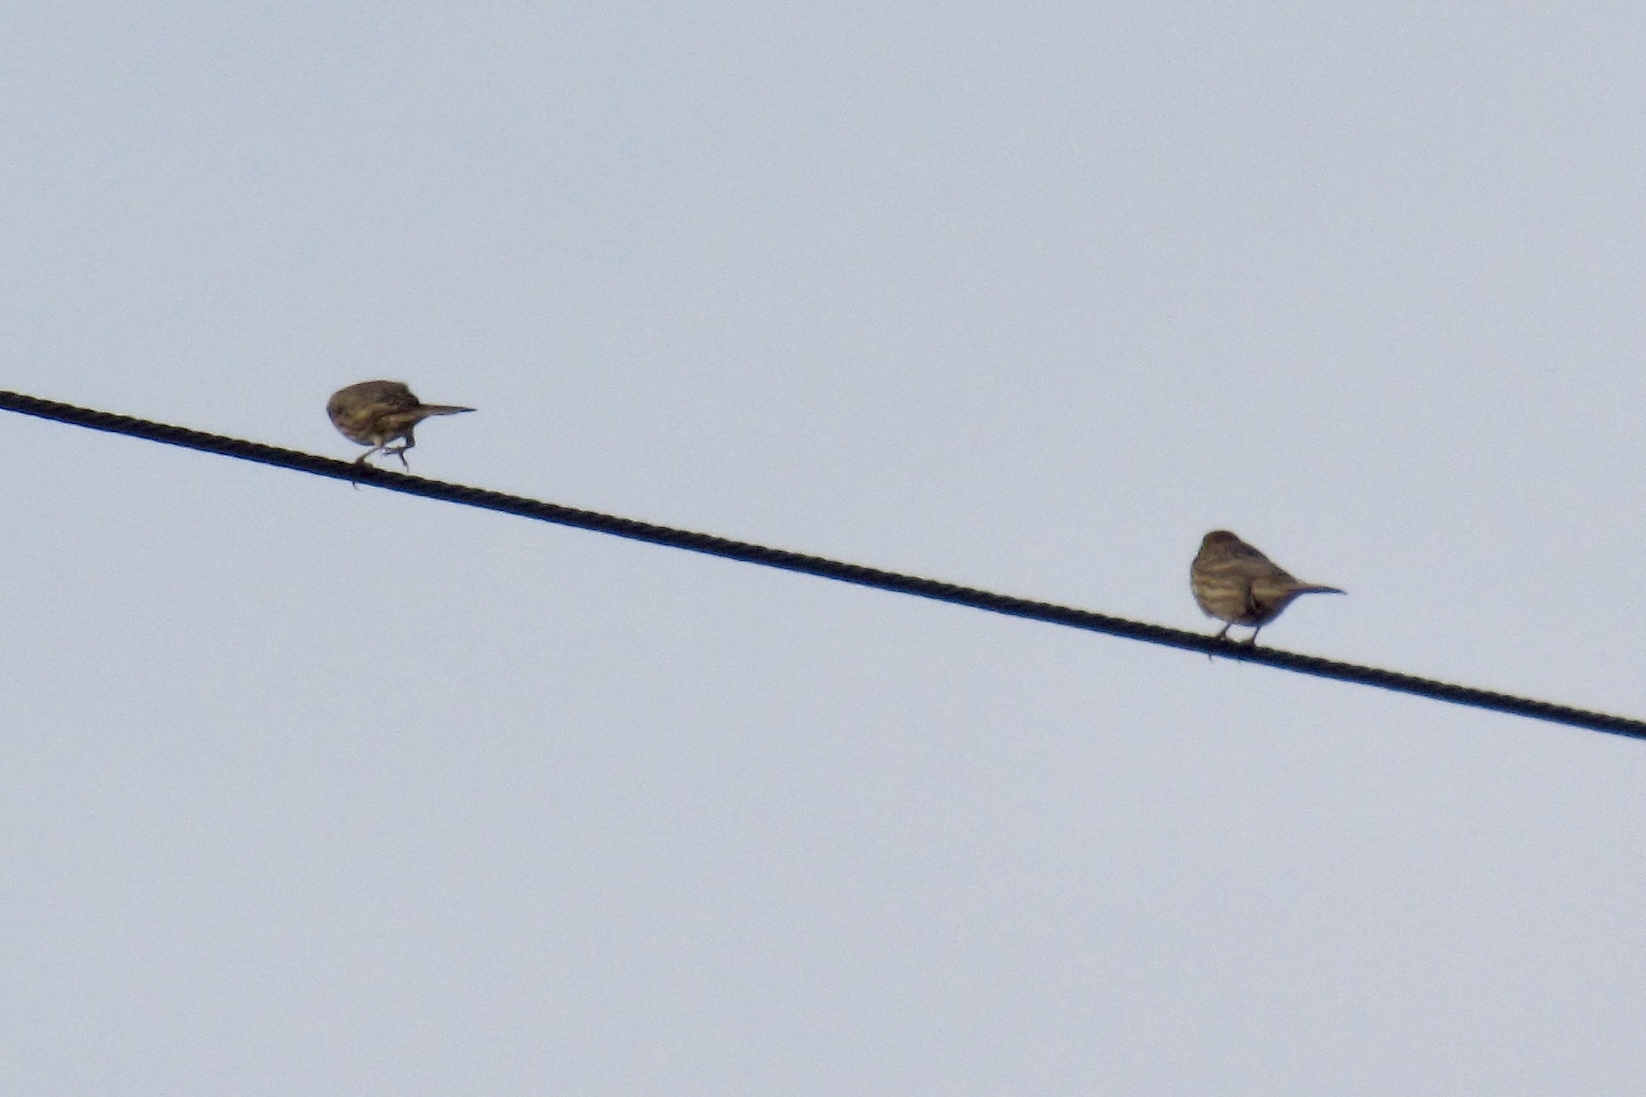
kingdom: Animalia
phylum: Chordata
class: Aves
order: Passeriformes
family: Fringillidae
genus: Haemorhous
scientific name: Haemorhous mexicanus
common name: House finch
